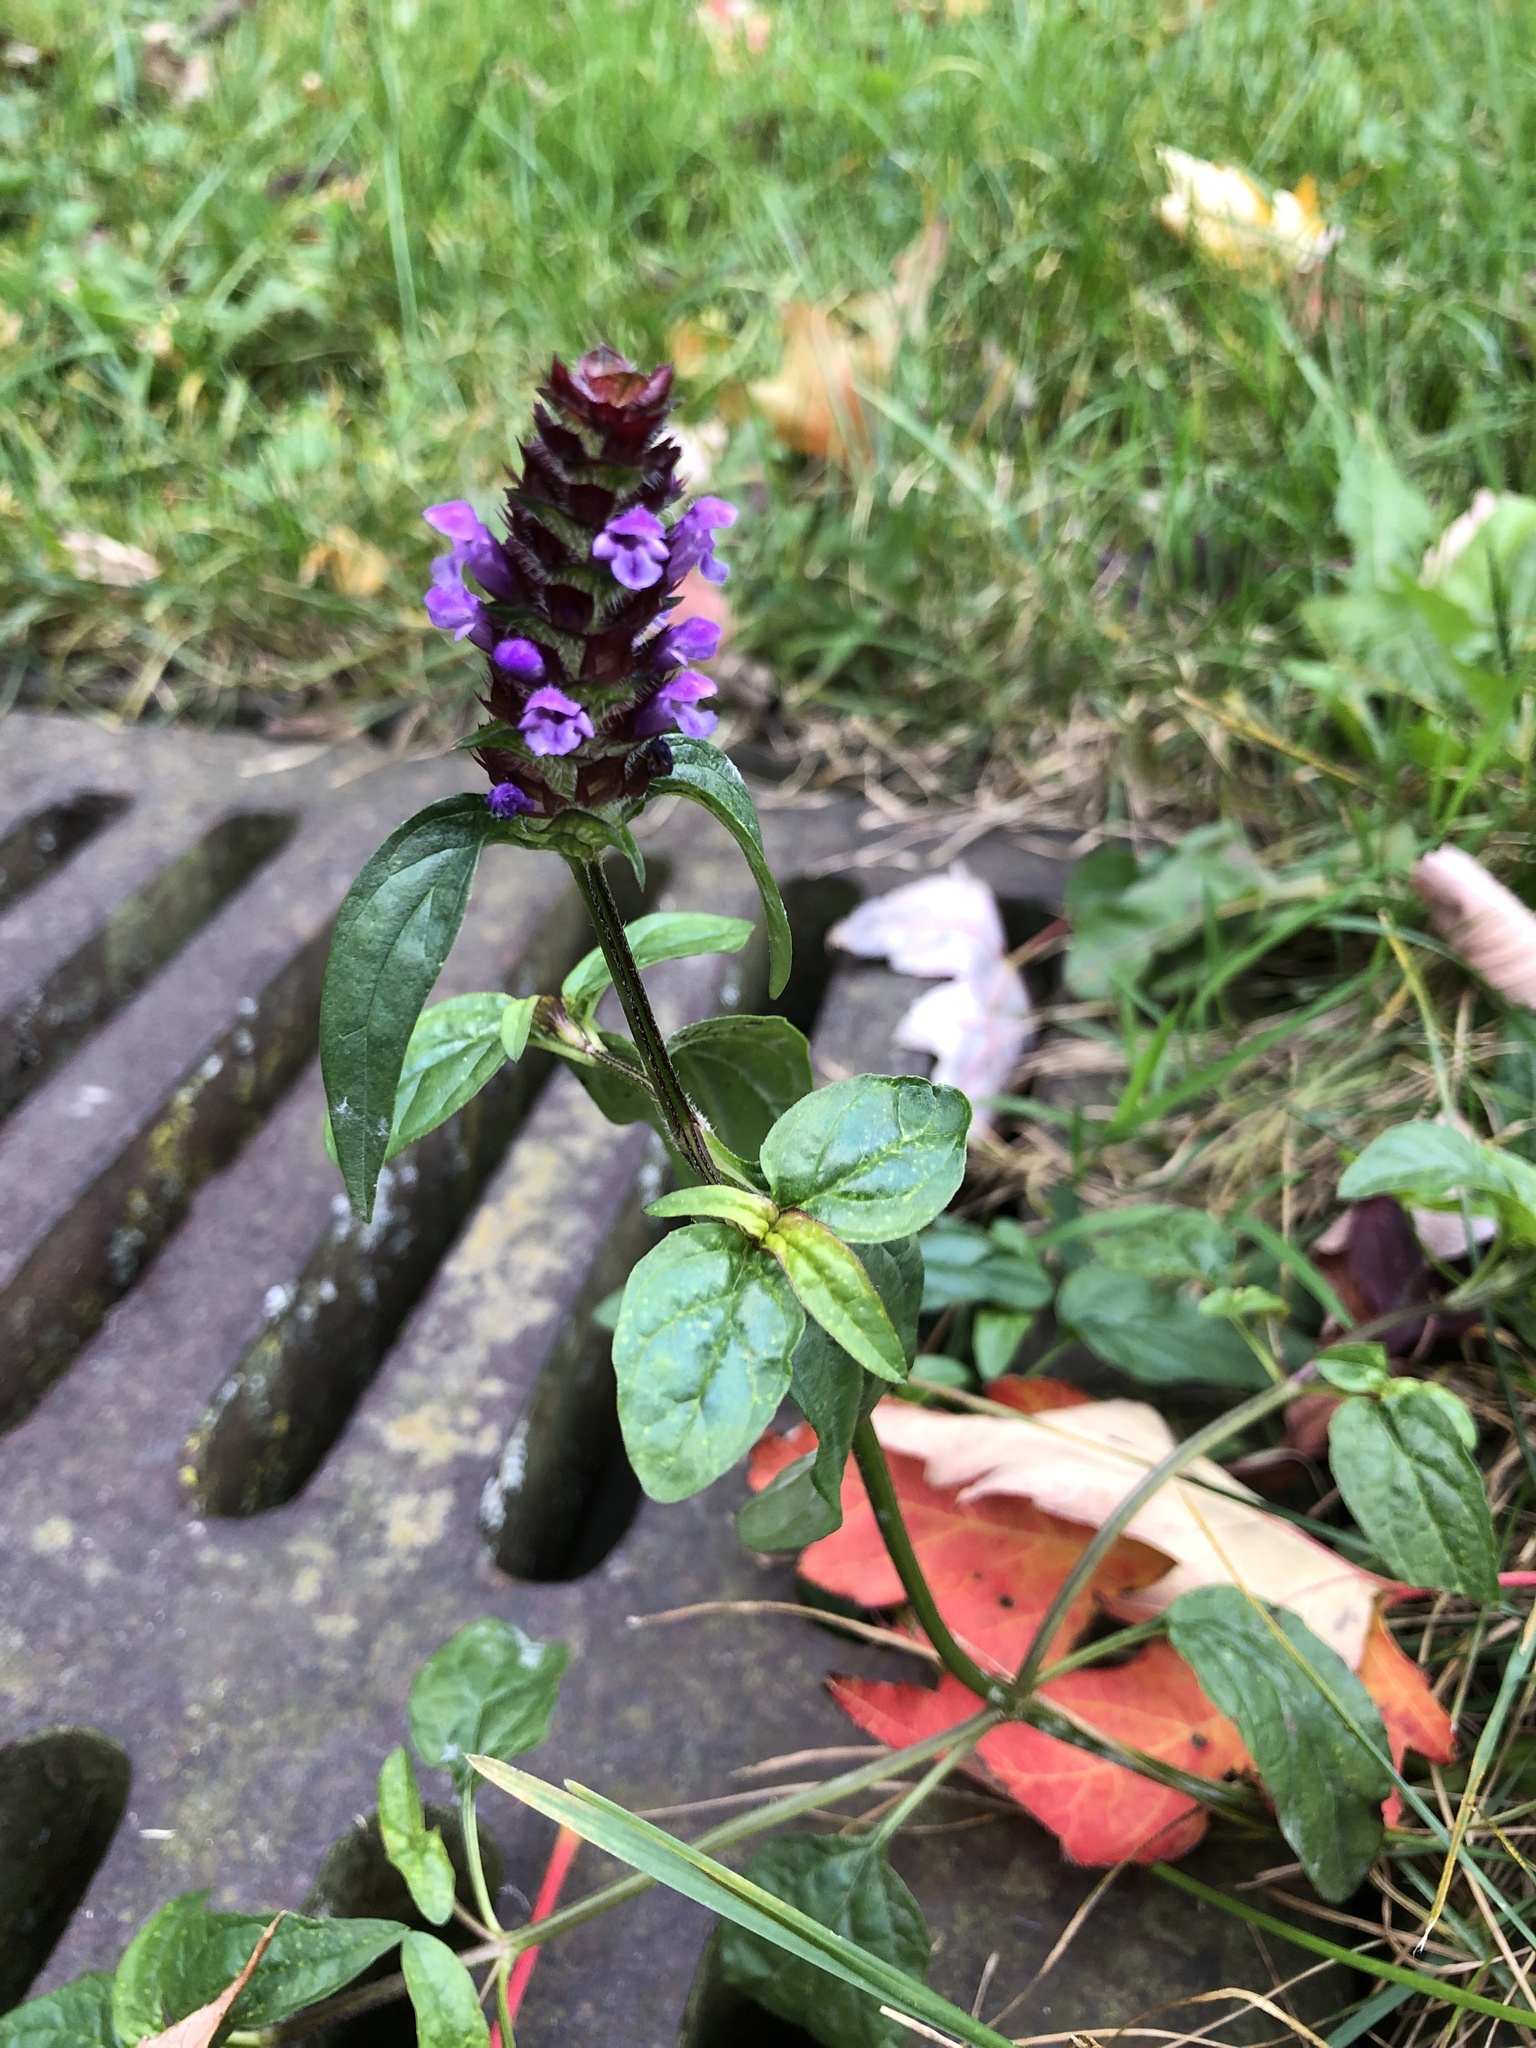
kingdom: Plantae
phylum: Tracheophyta
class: Magnoliopsida
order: Lamiales
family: Lamiaceae
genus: Prunella
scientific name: Prunella vulgaris
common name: Heal-all
